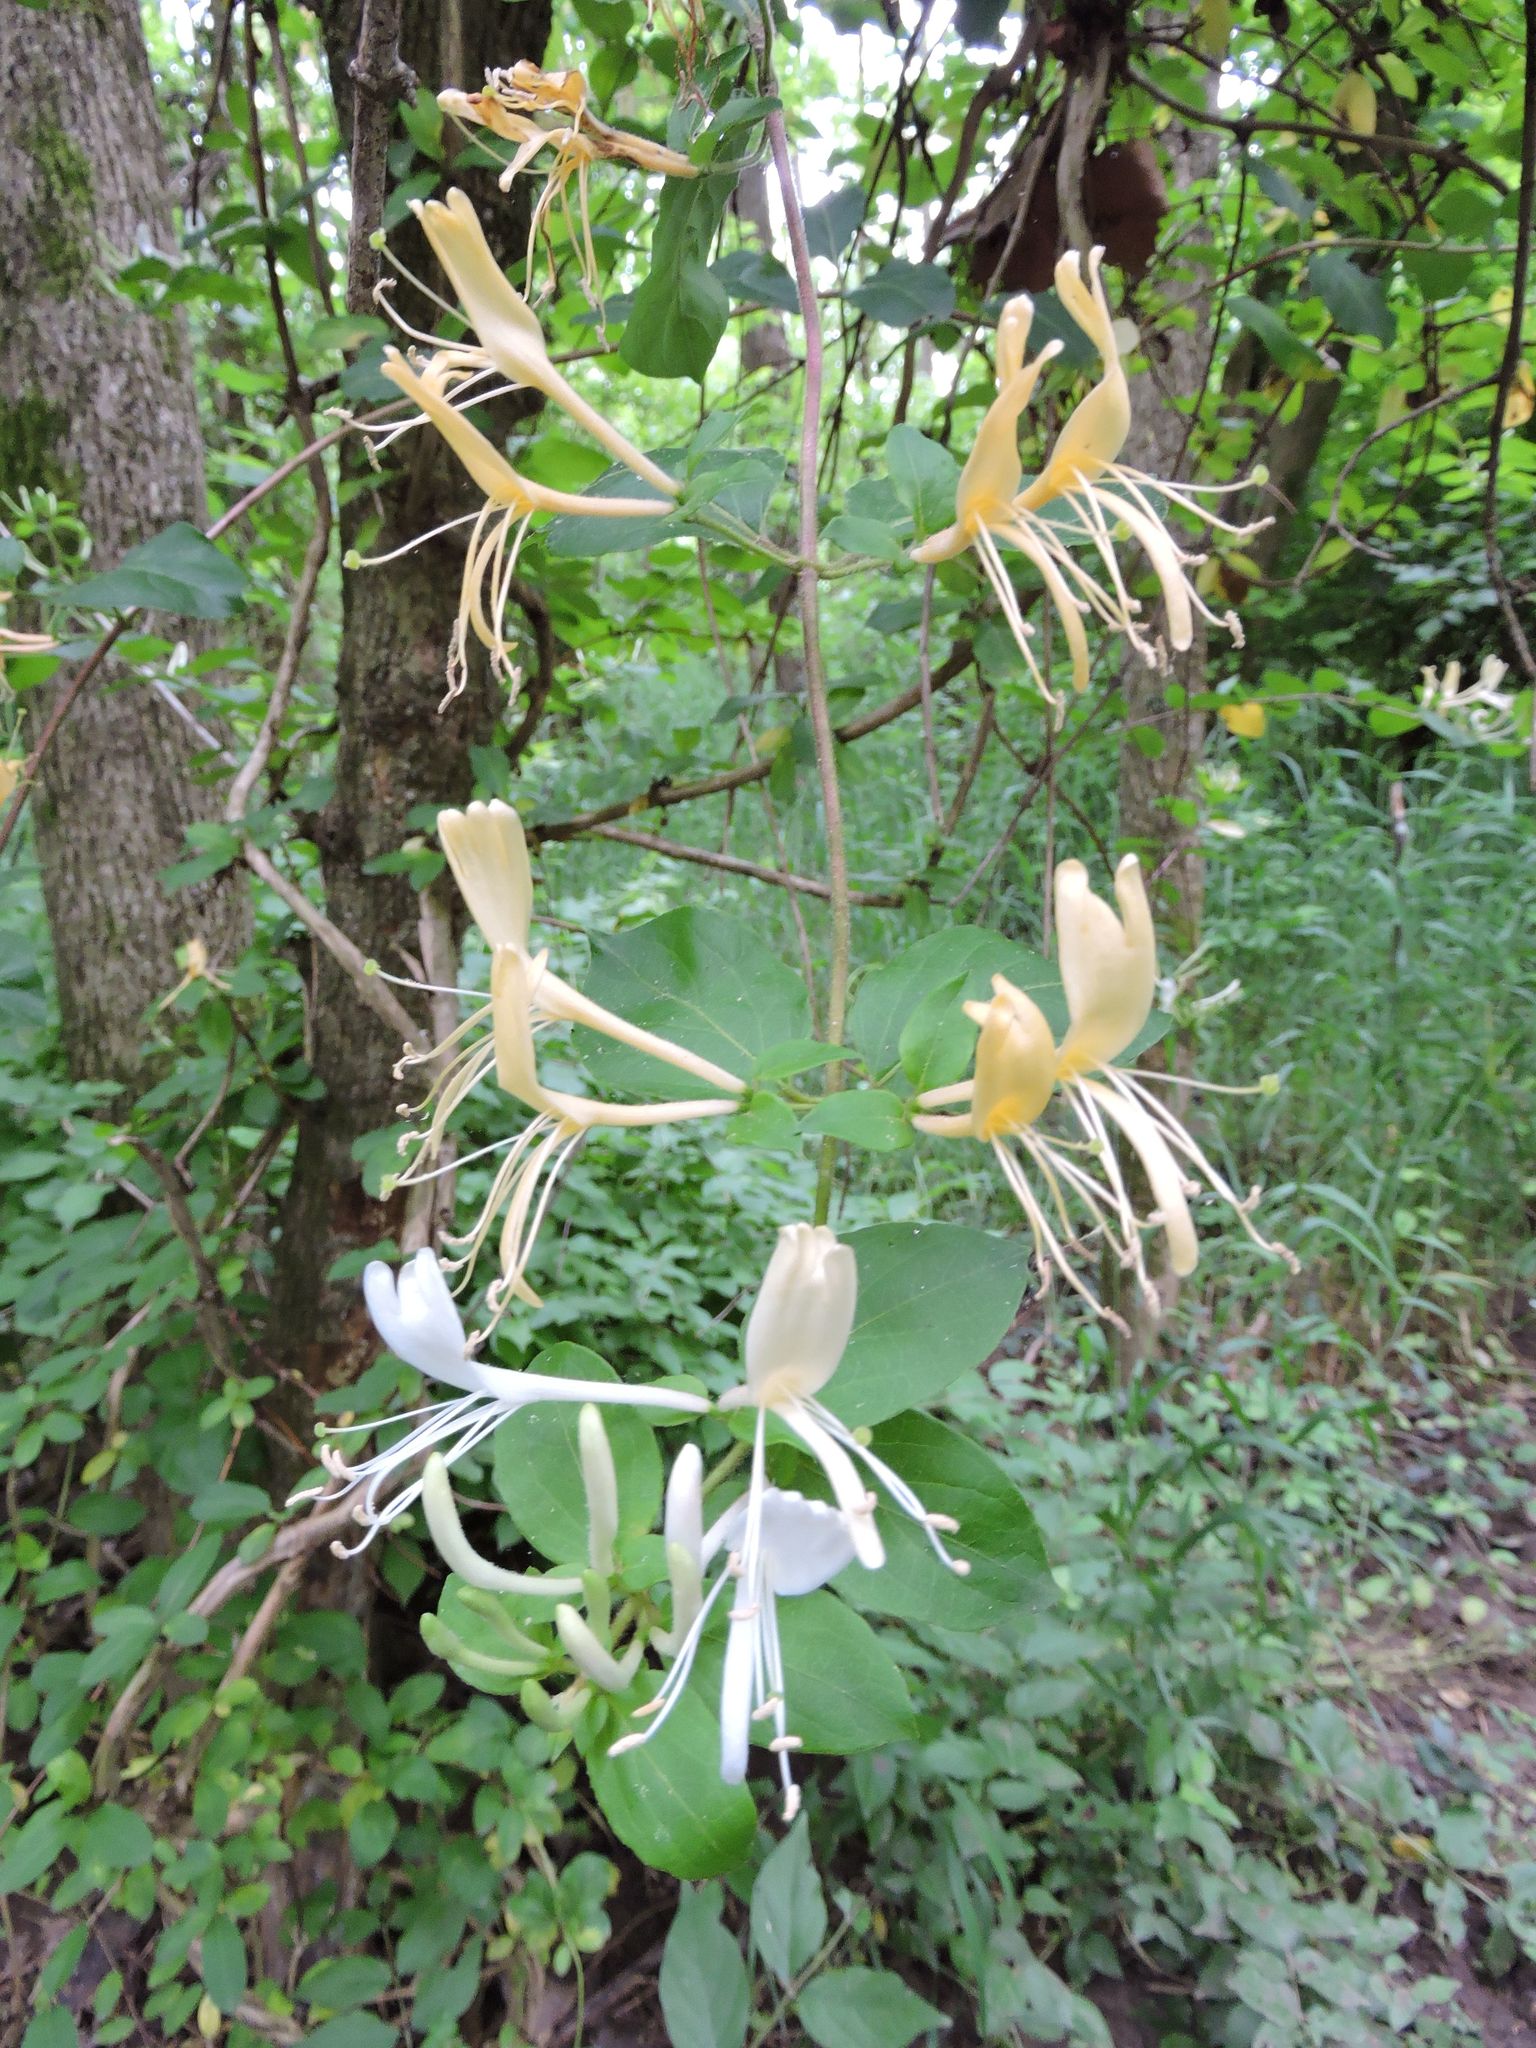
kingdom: Plantae
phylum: Tracheophyta
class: Magnoliopsida
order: Dipsacales
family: Caprifoliaceae
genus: Lonicera
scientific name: Lonicera japonica
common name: Japanese honeysuckle
